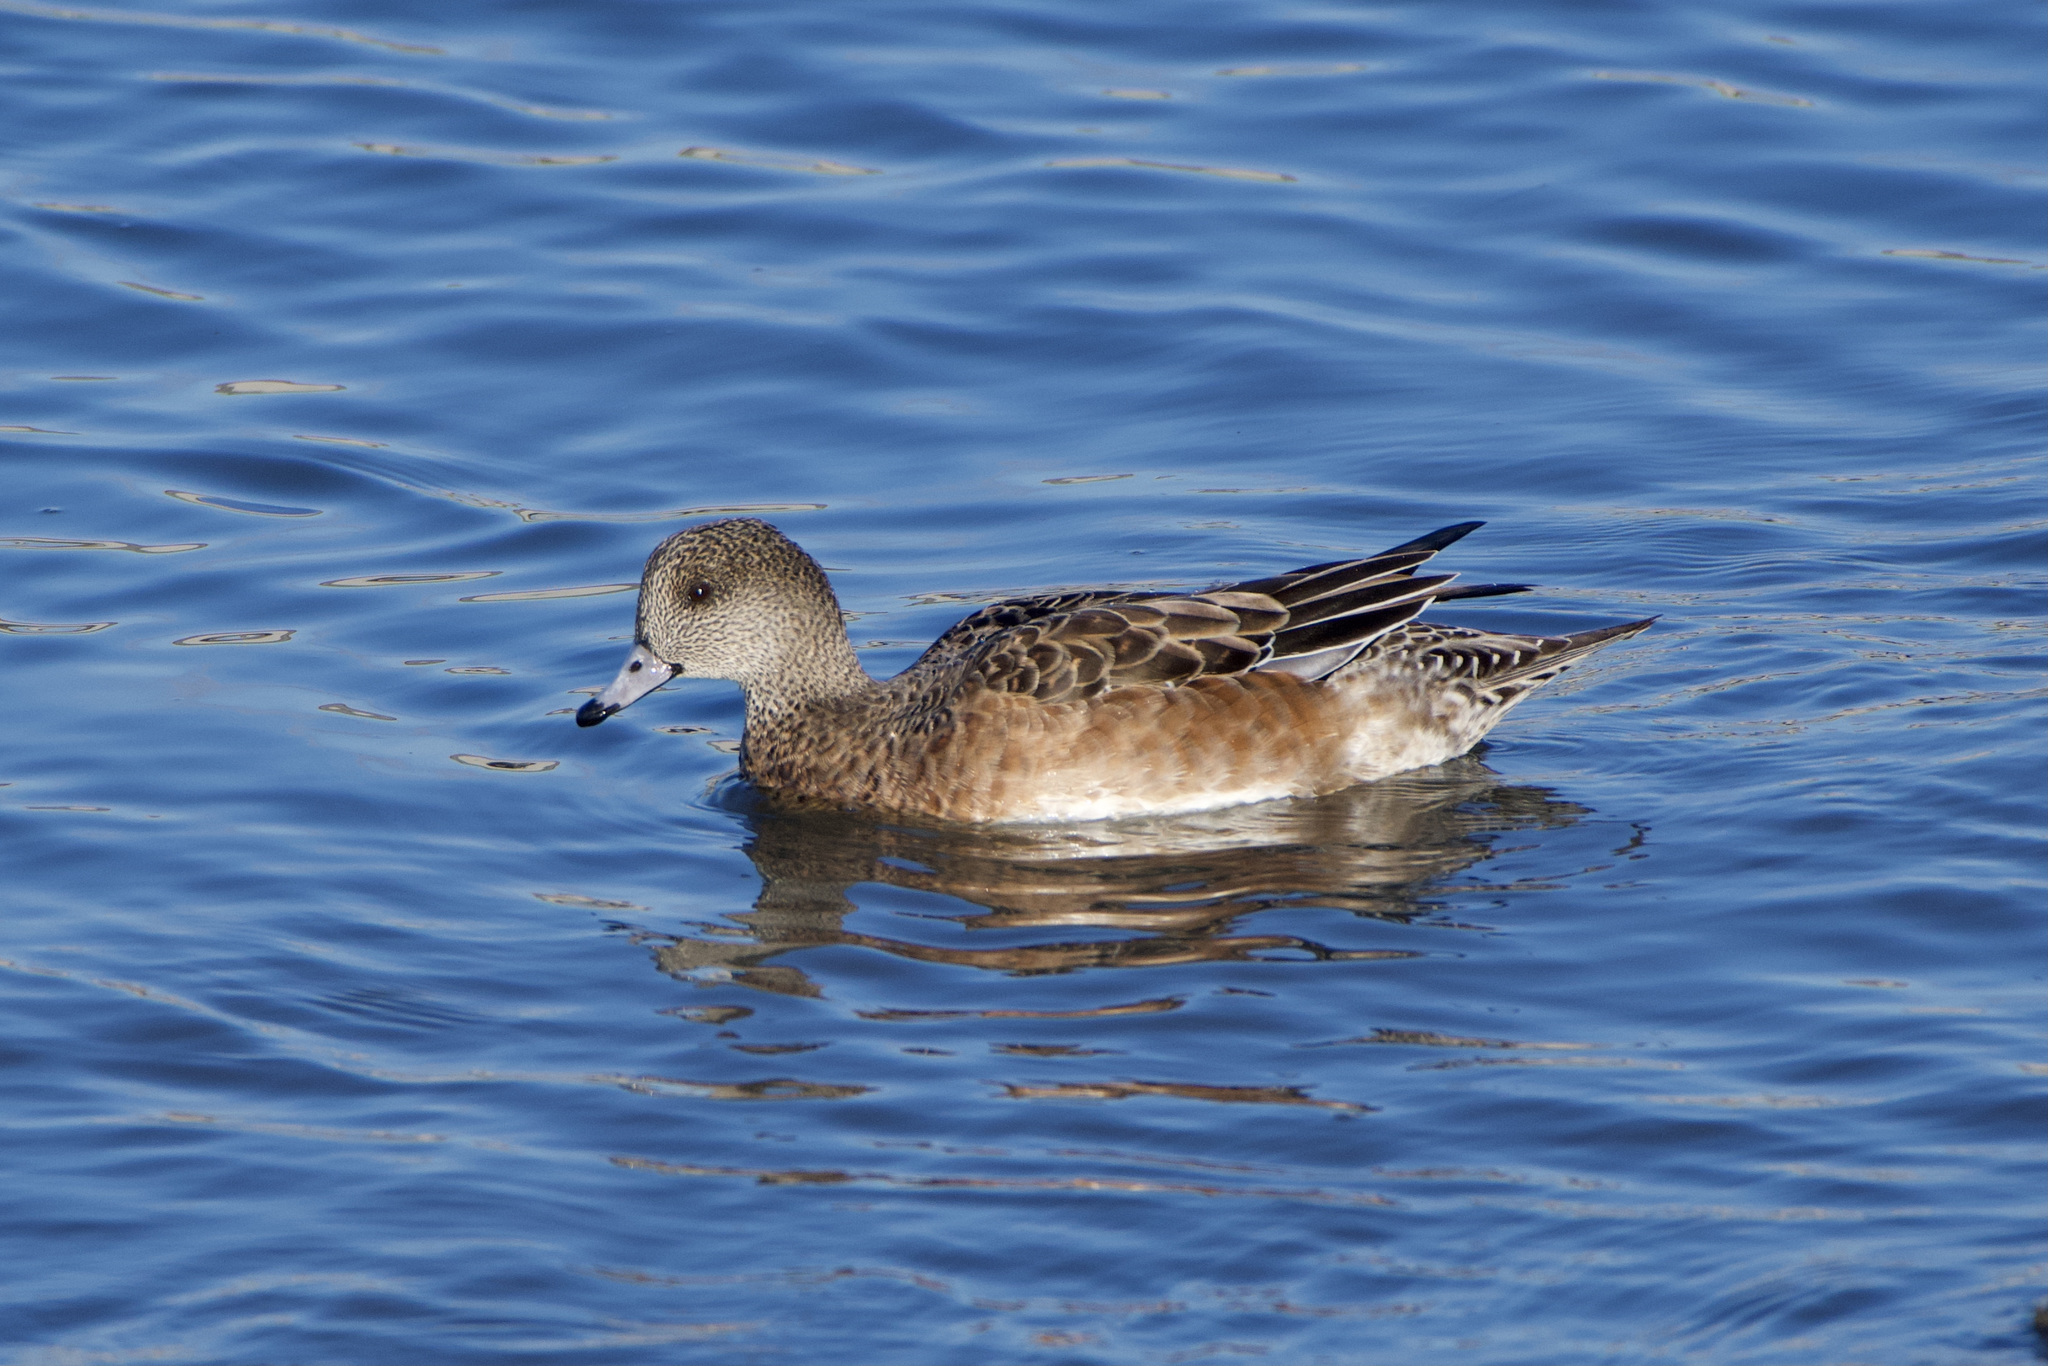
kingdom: Animalia
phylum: Chordata
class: Aves
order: Anseriformes
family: Anatidae
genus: Mareca
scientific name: Mareca americana
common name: American wigeon
